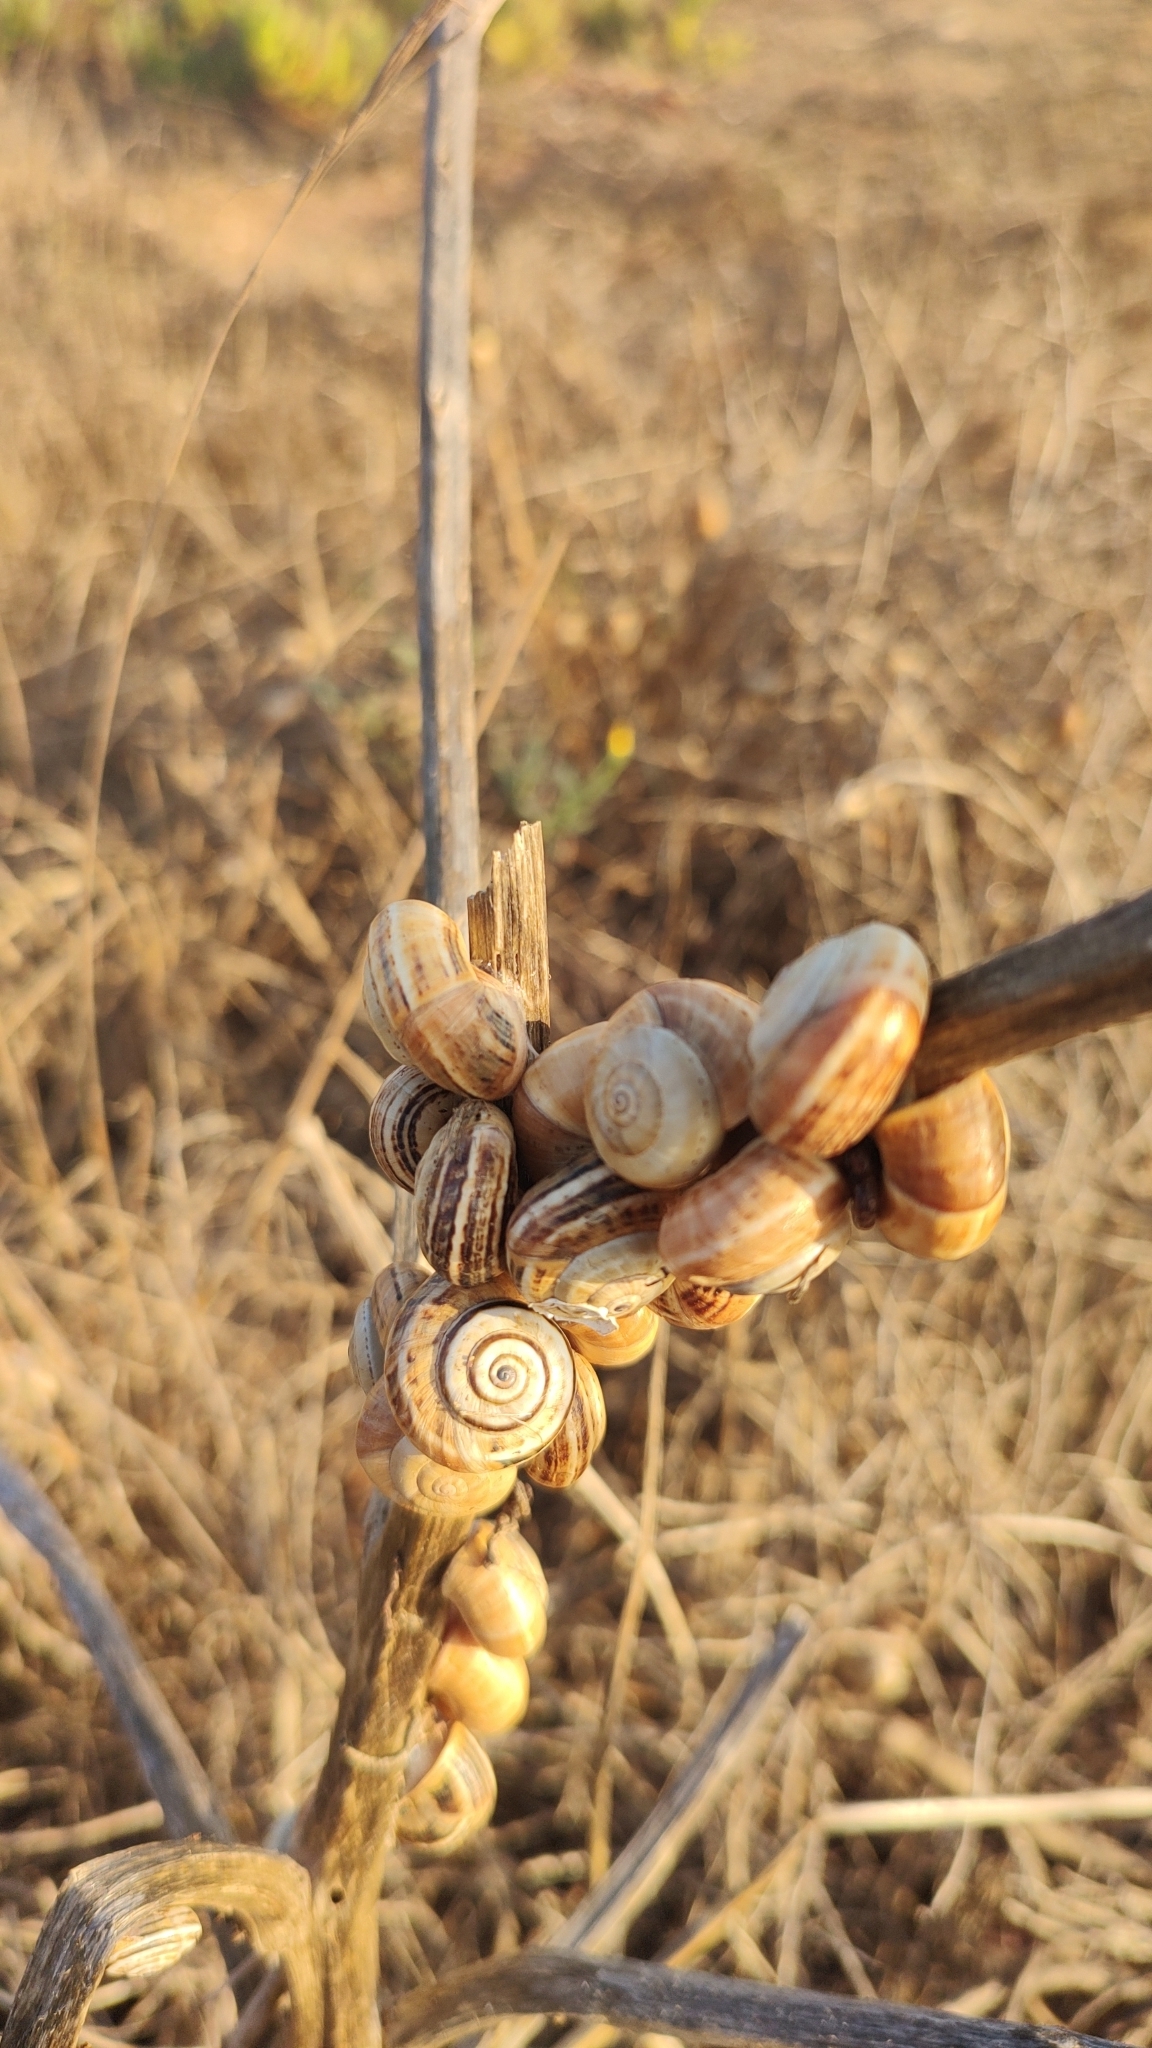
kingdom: Animalia
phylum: Mollusca
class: Gastropoda
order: Stylommatophora
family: Helicidae
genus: Theba
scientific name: Theba pisana
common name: White snail
